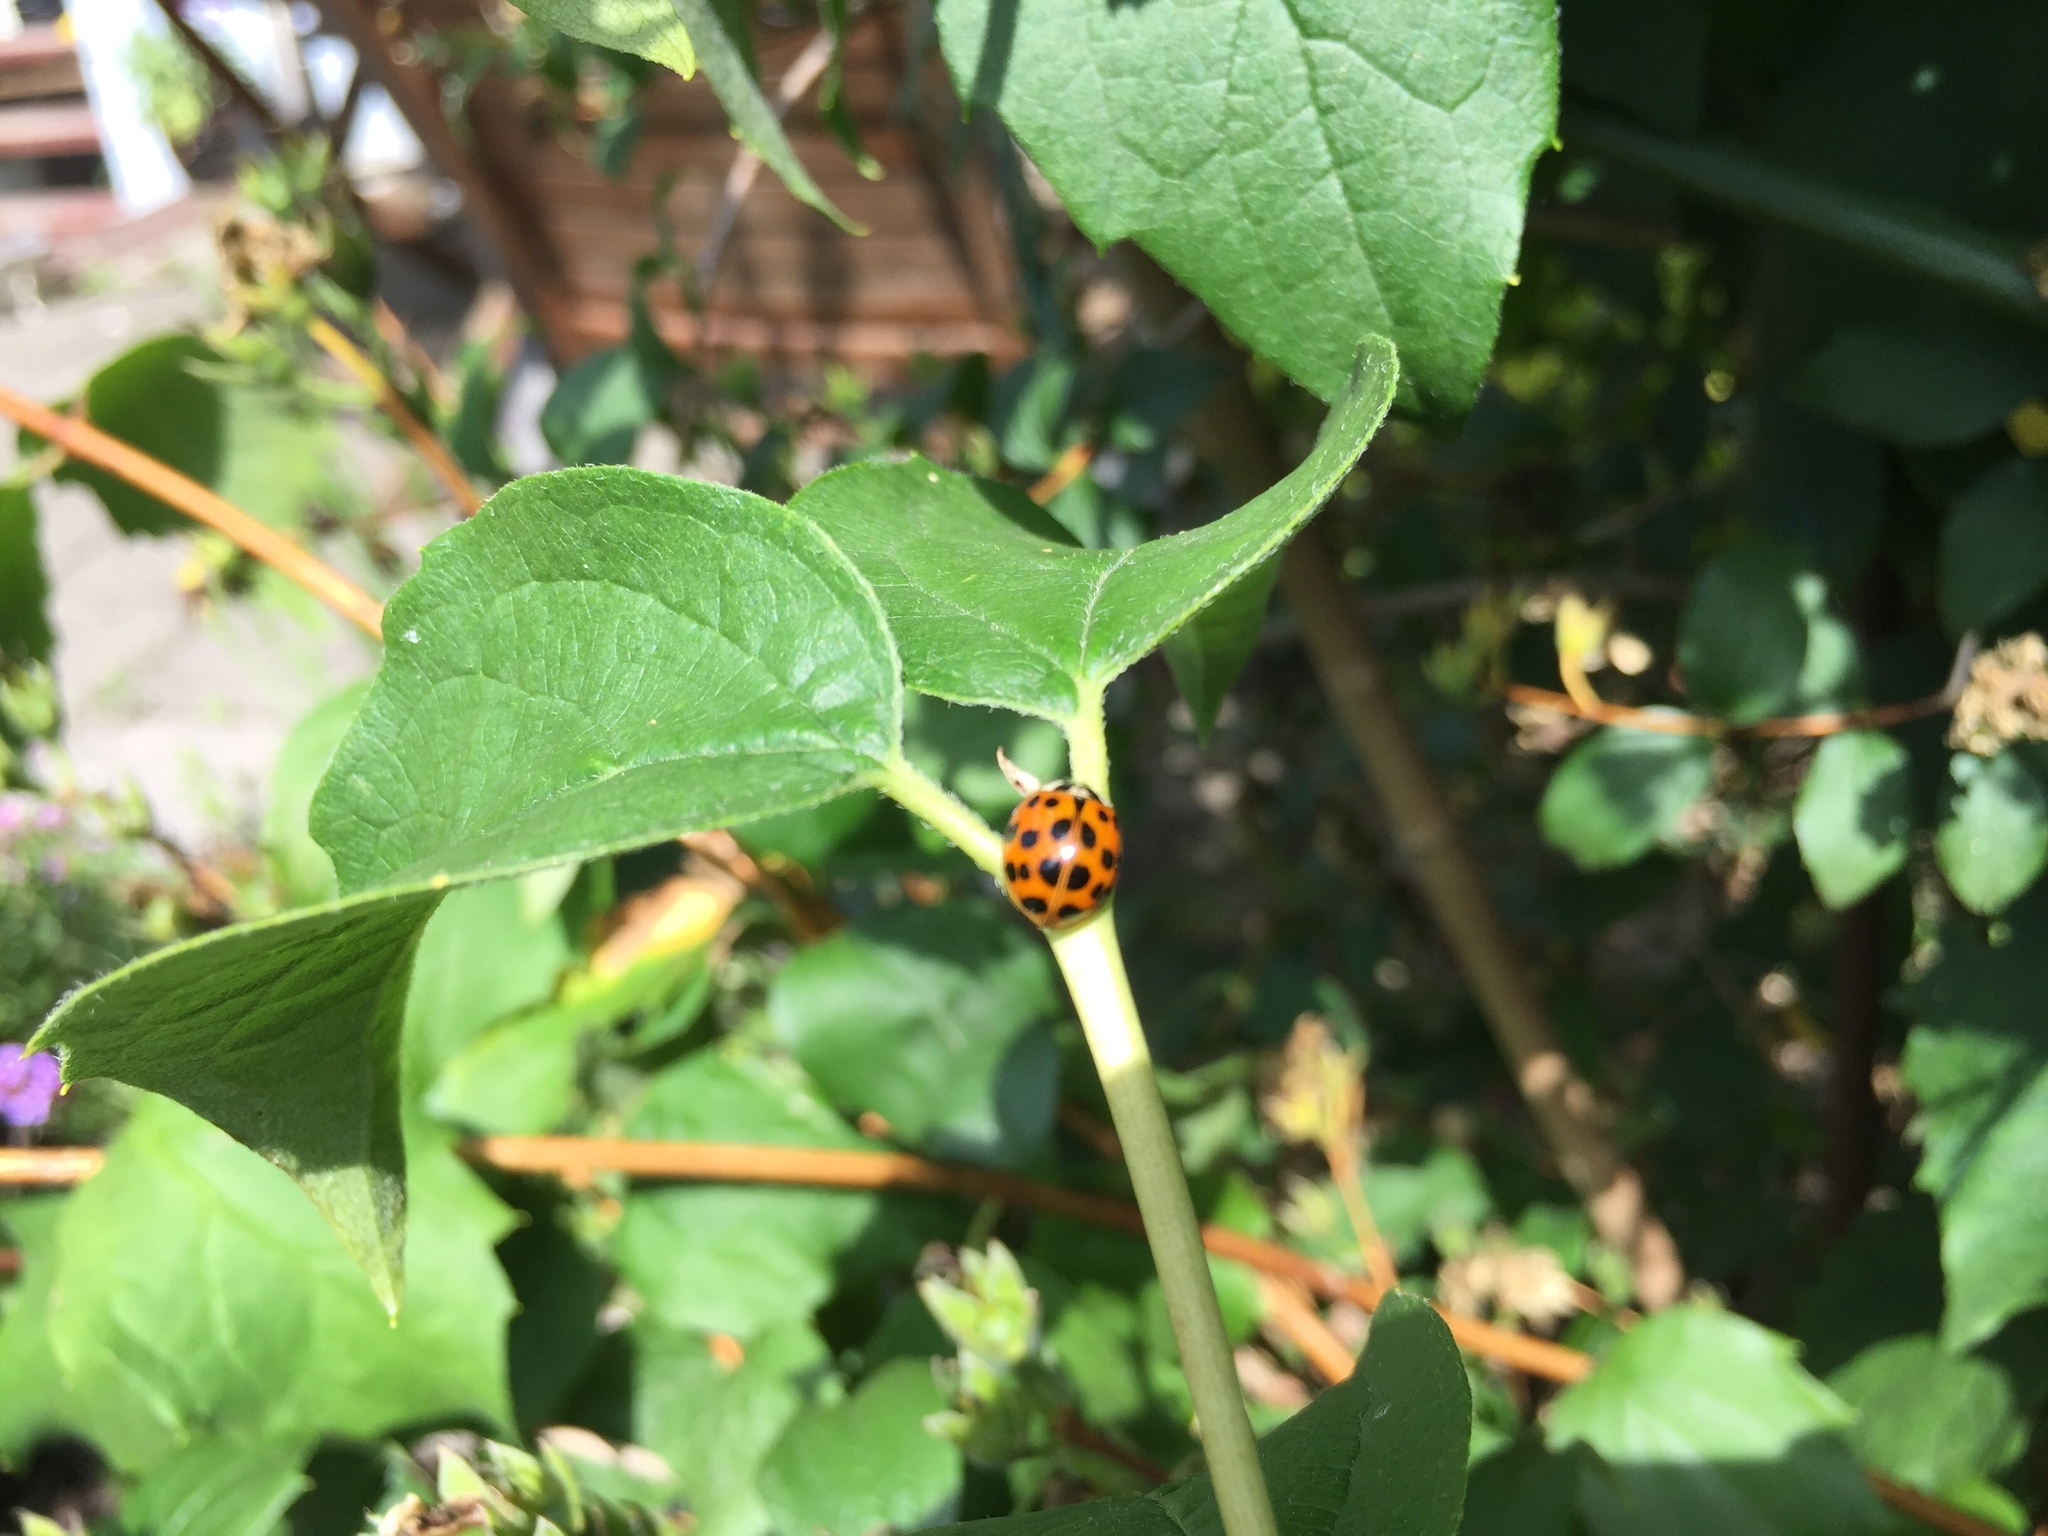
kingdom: Animalia
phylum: Arthropoda
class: Insecta
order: Coleoptera
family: Coccinellidae
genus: Harmonia
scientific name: Harmonia axyridis
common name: Harlequin ladybird
